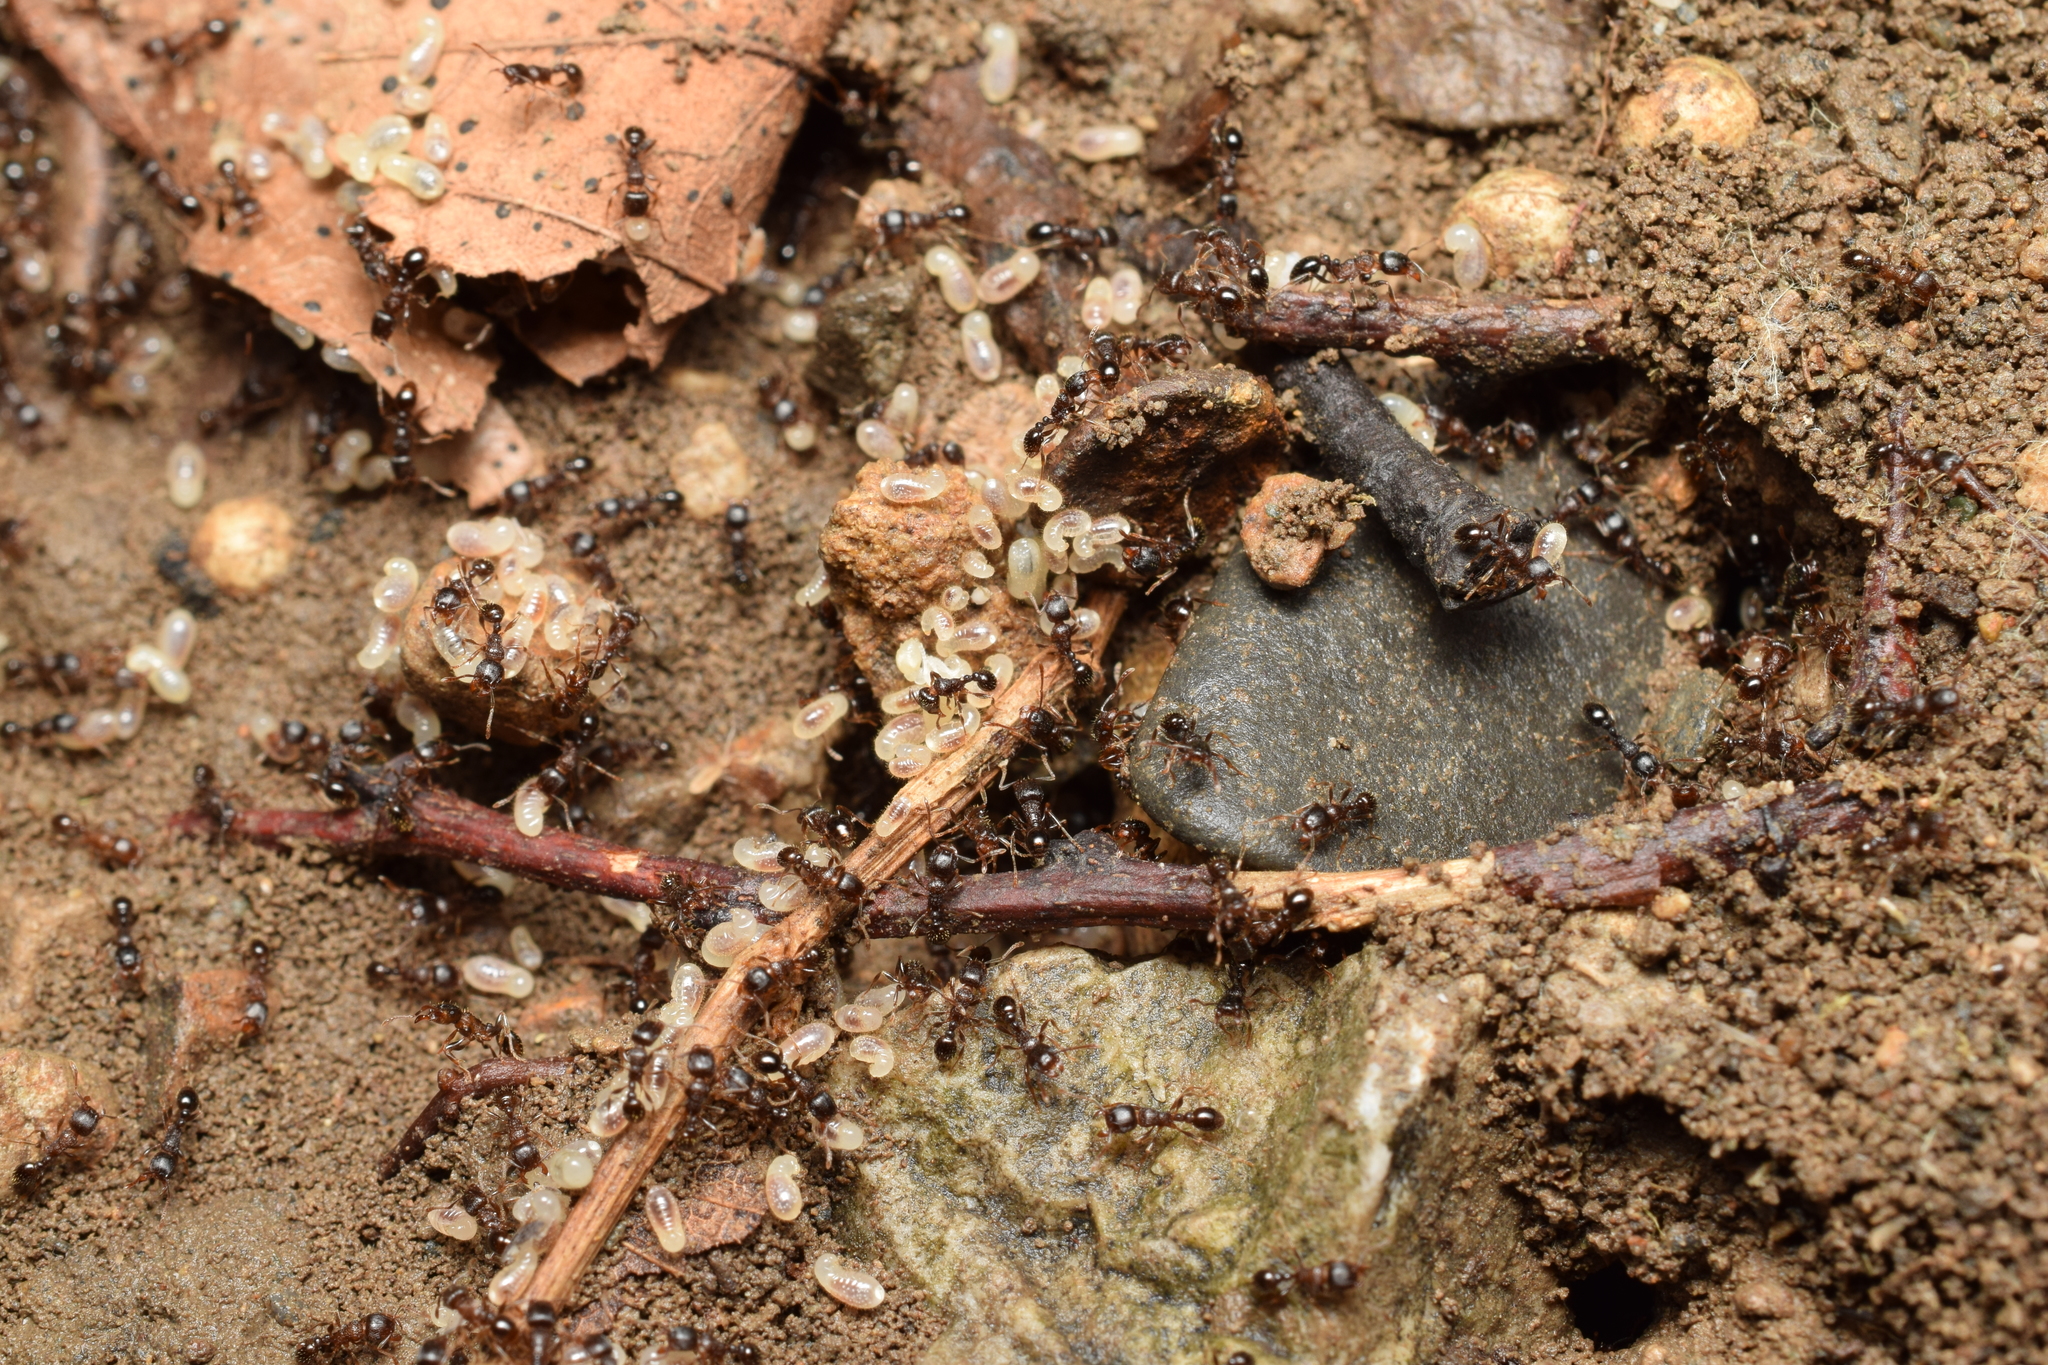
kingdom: Animalia
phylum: Arthropoda
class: Insecta
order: Hymenoptera
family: Formicidae
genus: Tetramorium
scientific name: Tetramorium tsushimae
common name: Ant
